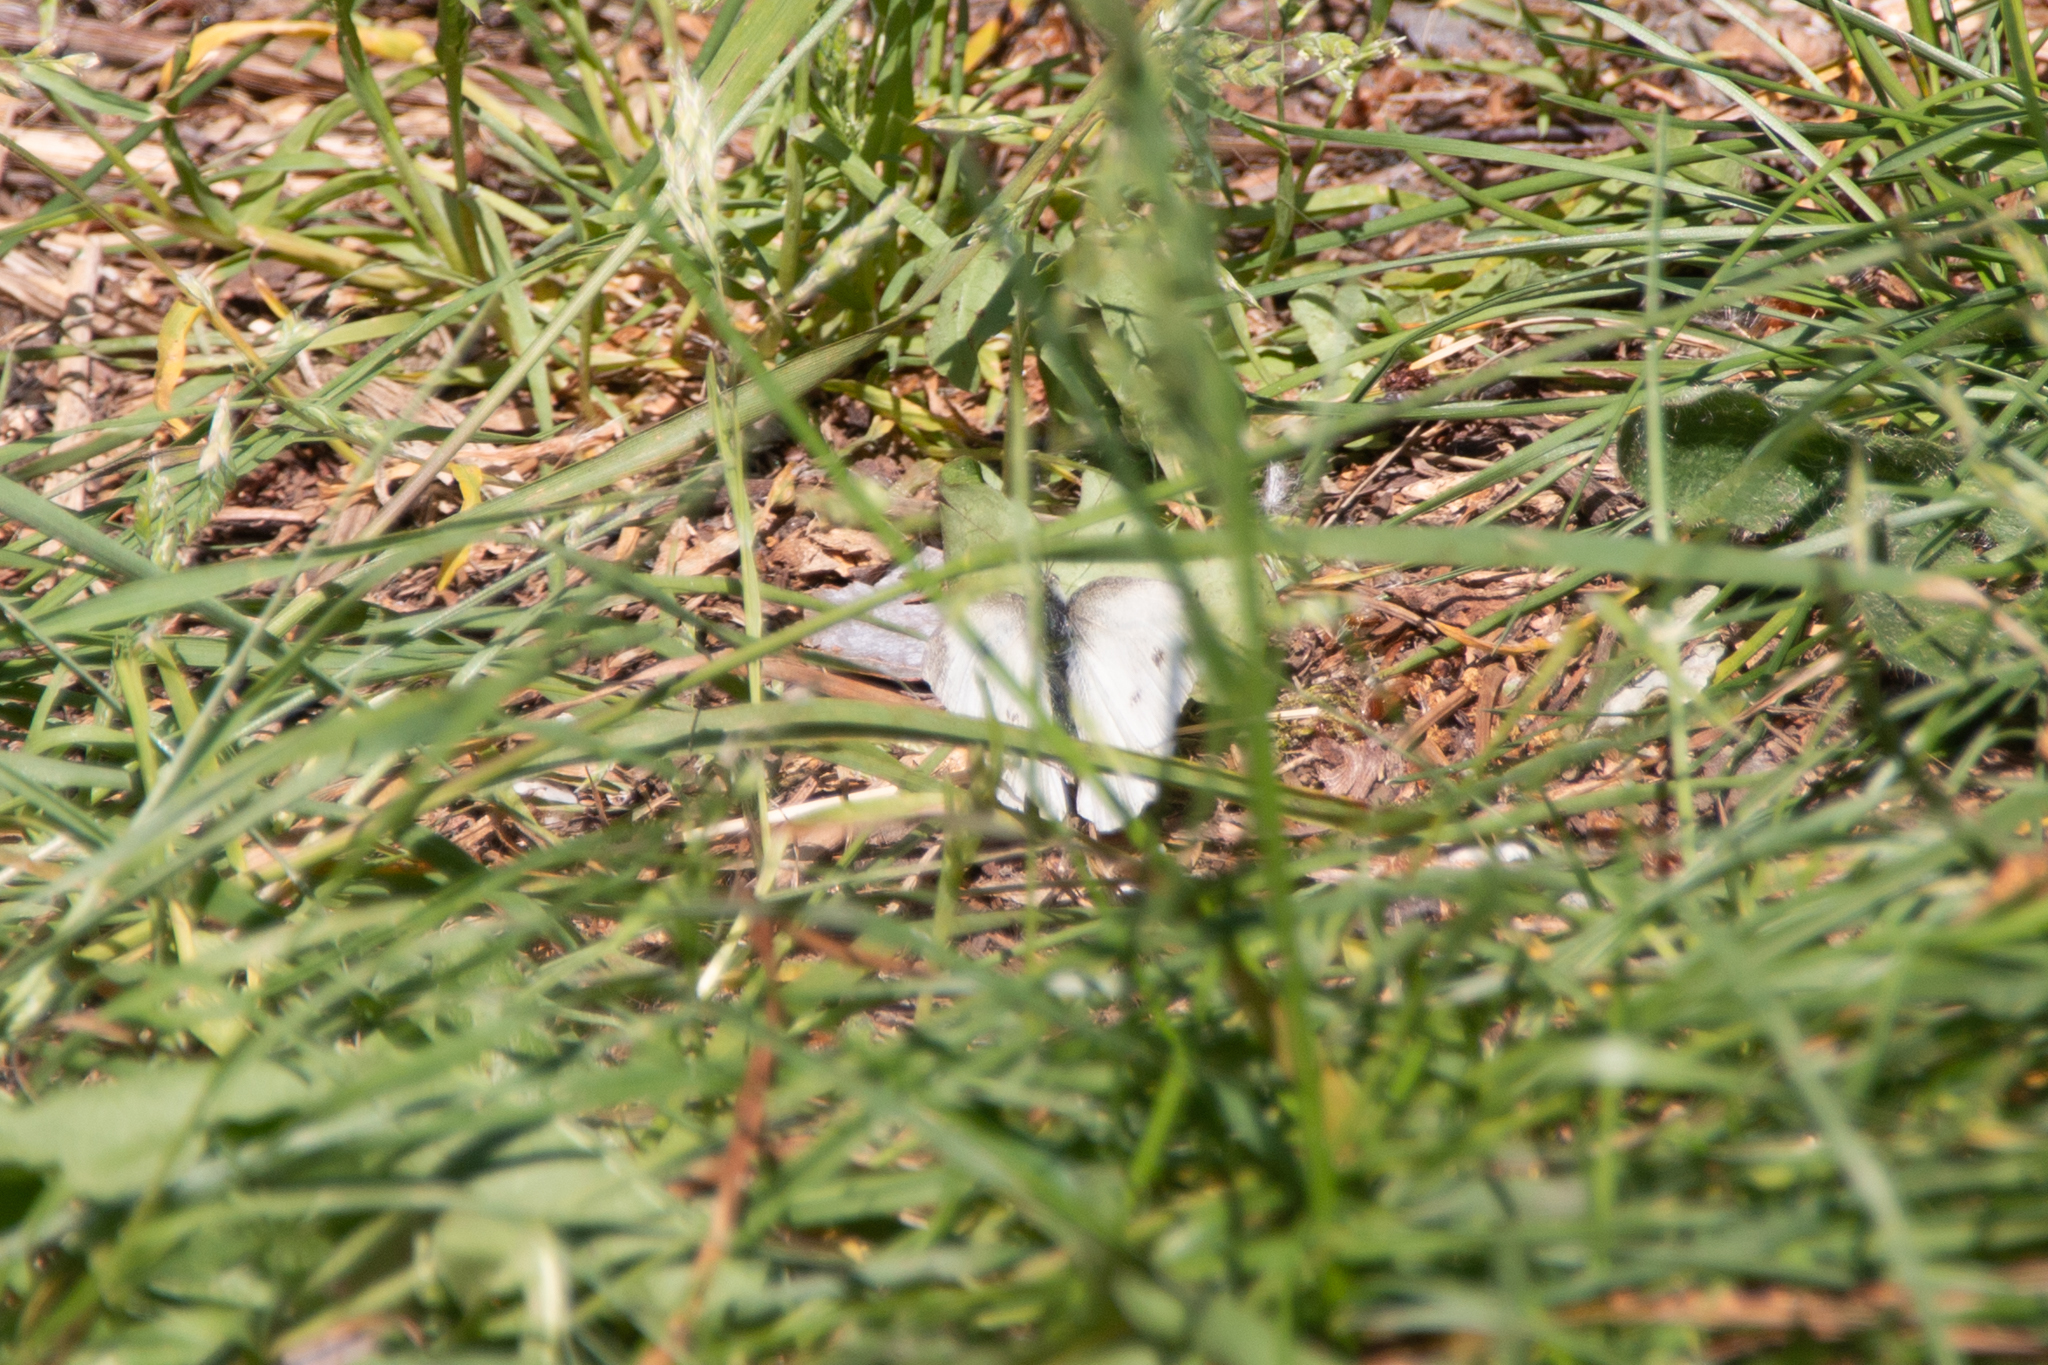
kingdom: Animalia
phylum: Arthropoda
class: Insecta
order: Lepidoptera
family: Pieridae
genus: Pieris
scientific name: Pieris rapae
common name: Small white
